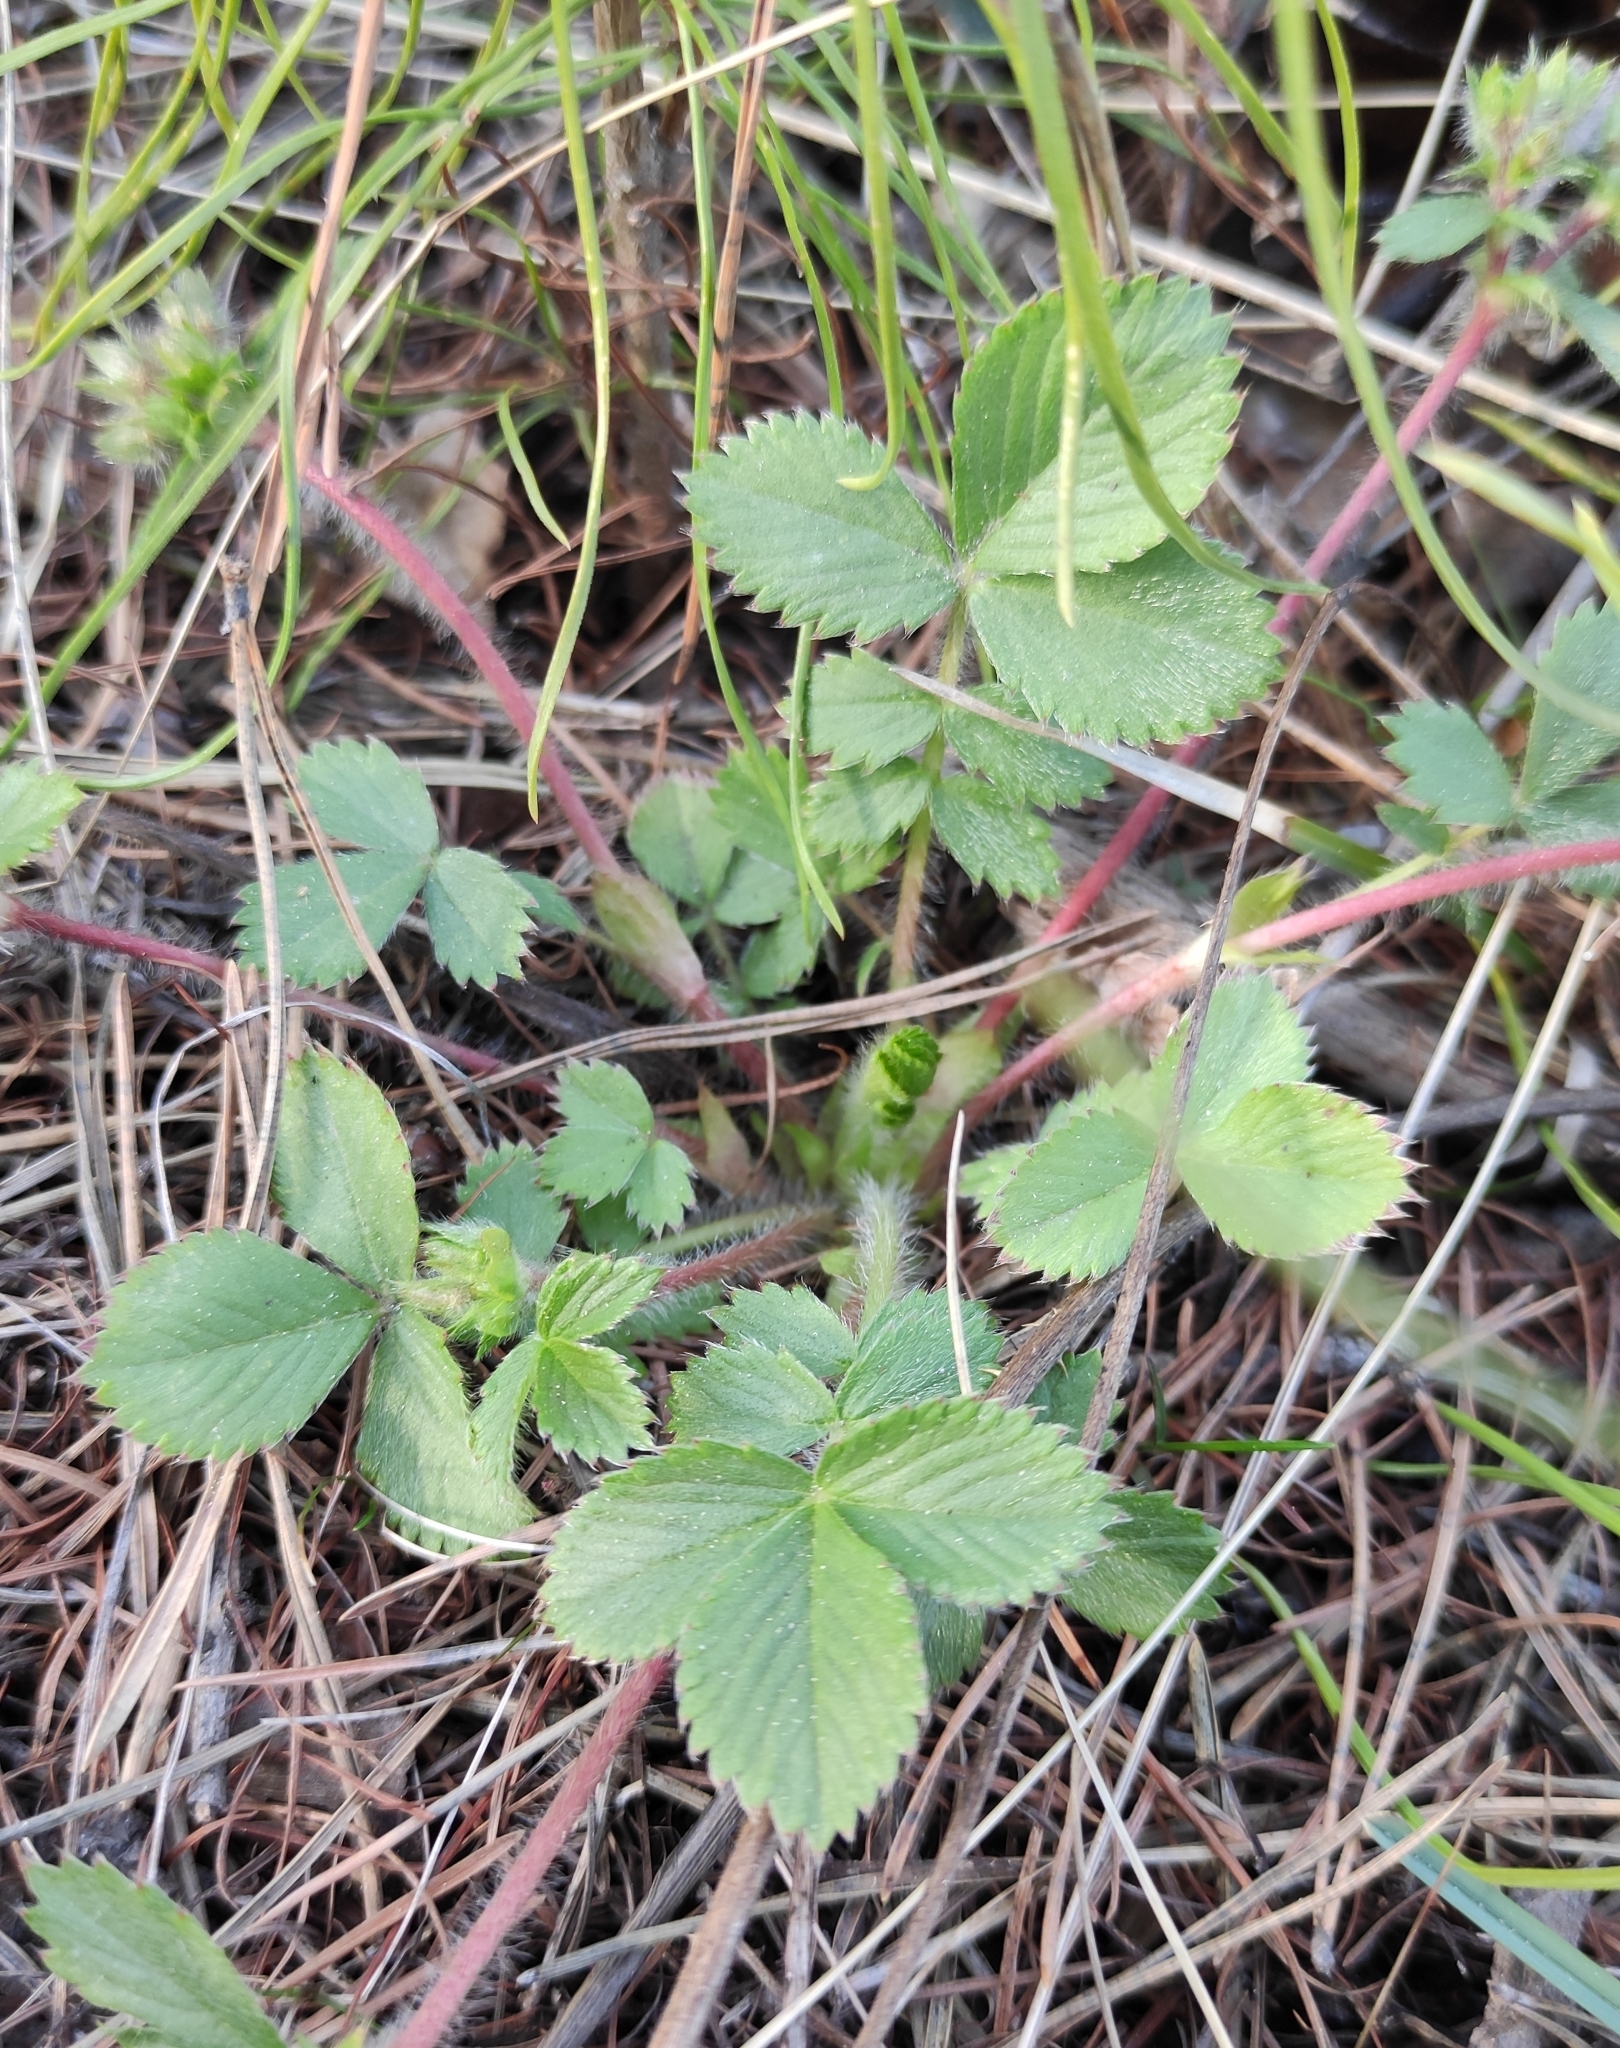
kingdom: Plantae
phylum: Tracheophyta
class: Magnoliopsida
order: Rosales
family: Rosaceae
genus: Potentilla
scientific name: Potentilla fragarioides
